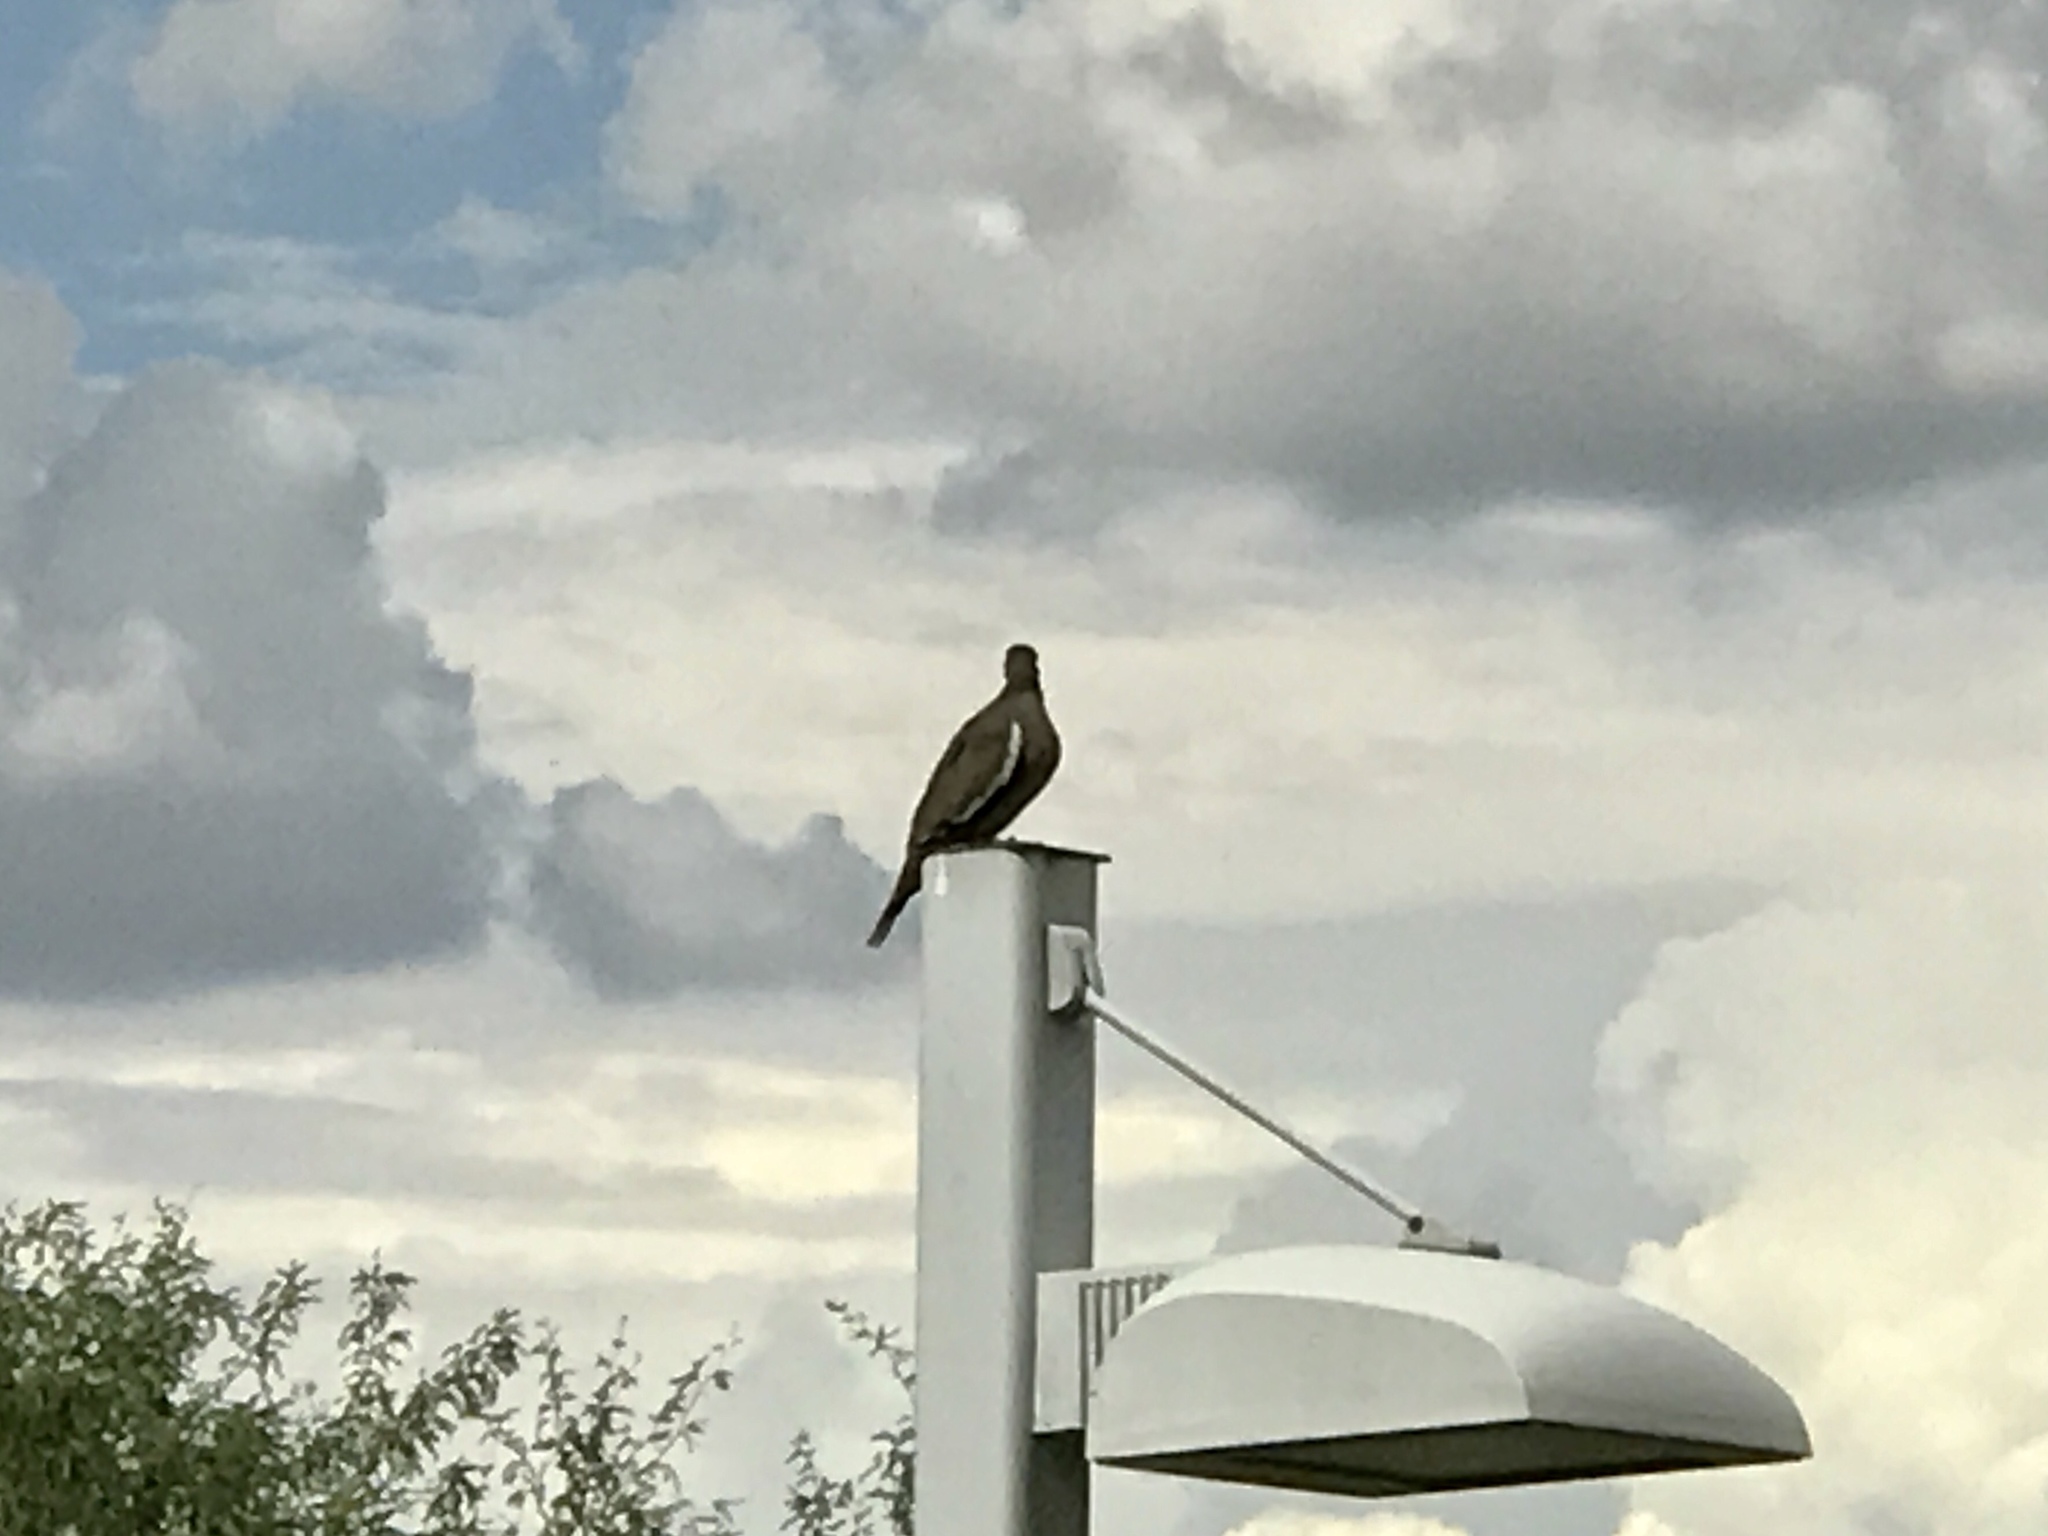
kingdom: Animalia
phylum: Chordata
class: Aves
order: Columbiformes
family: Columbidae
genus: Zenaida
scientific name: Zenaida asiatica
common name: White-winged dove
